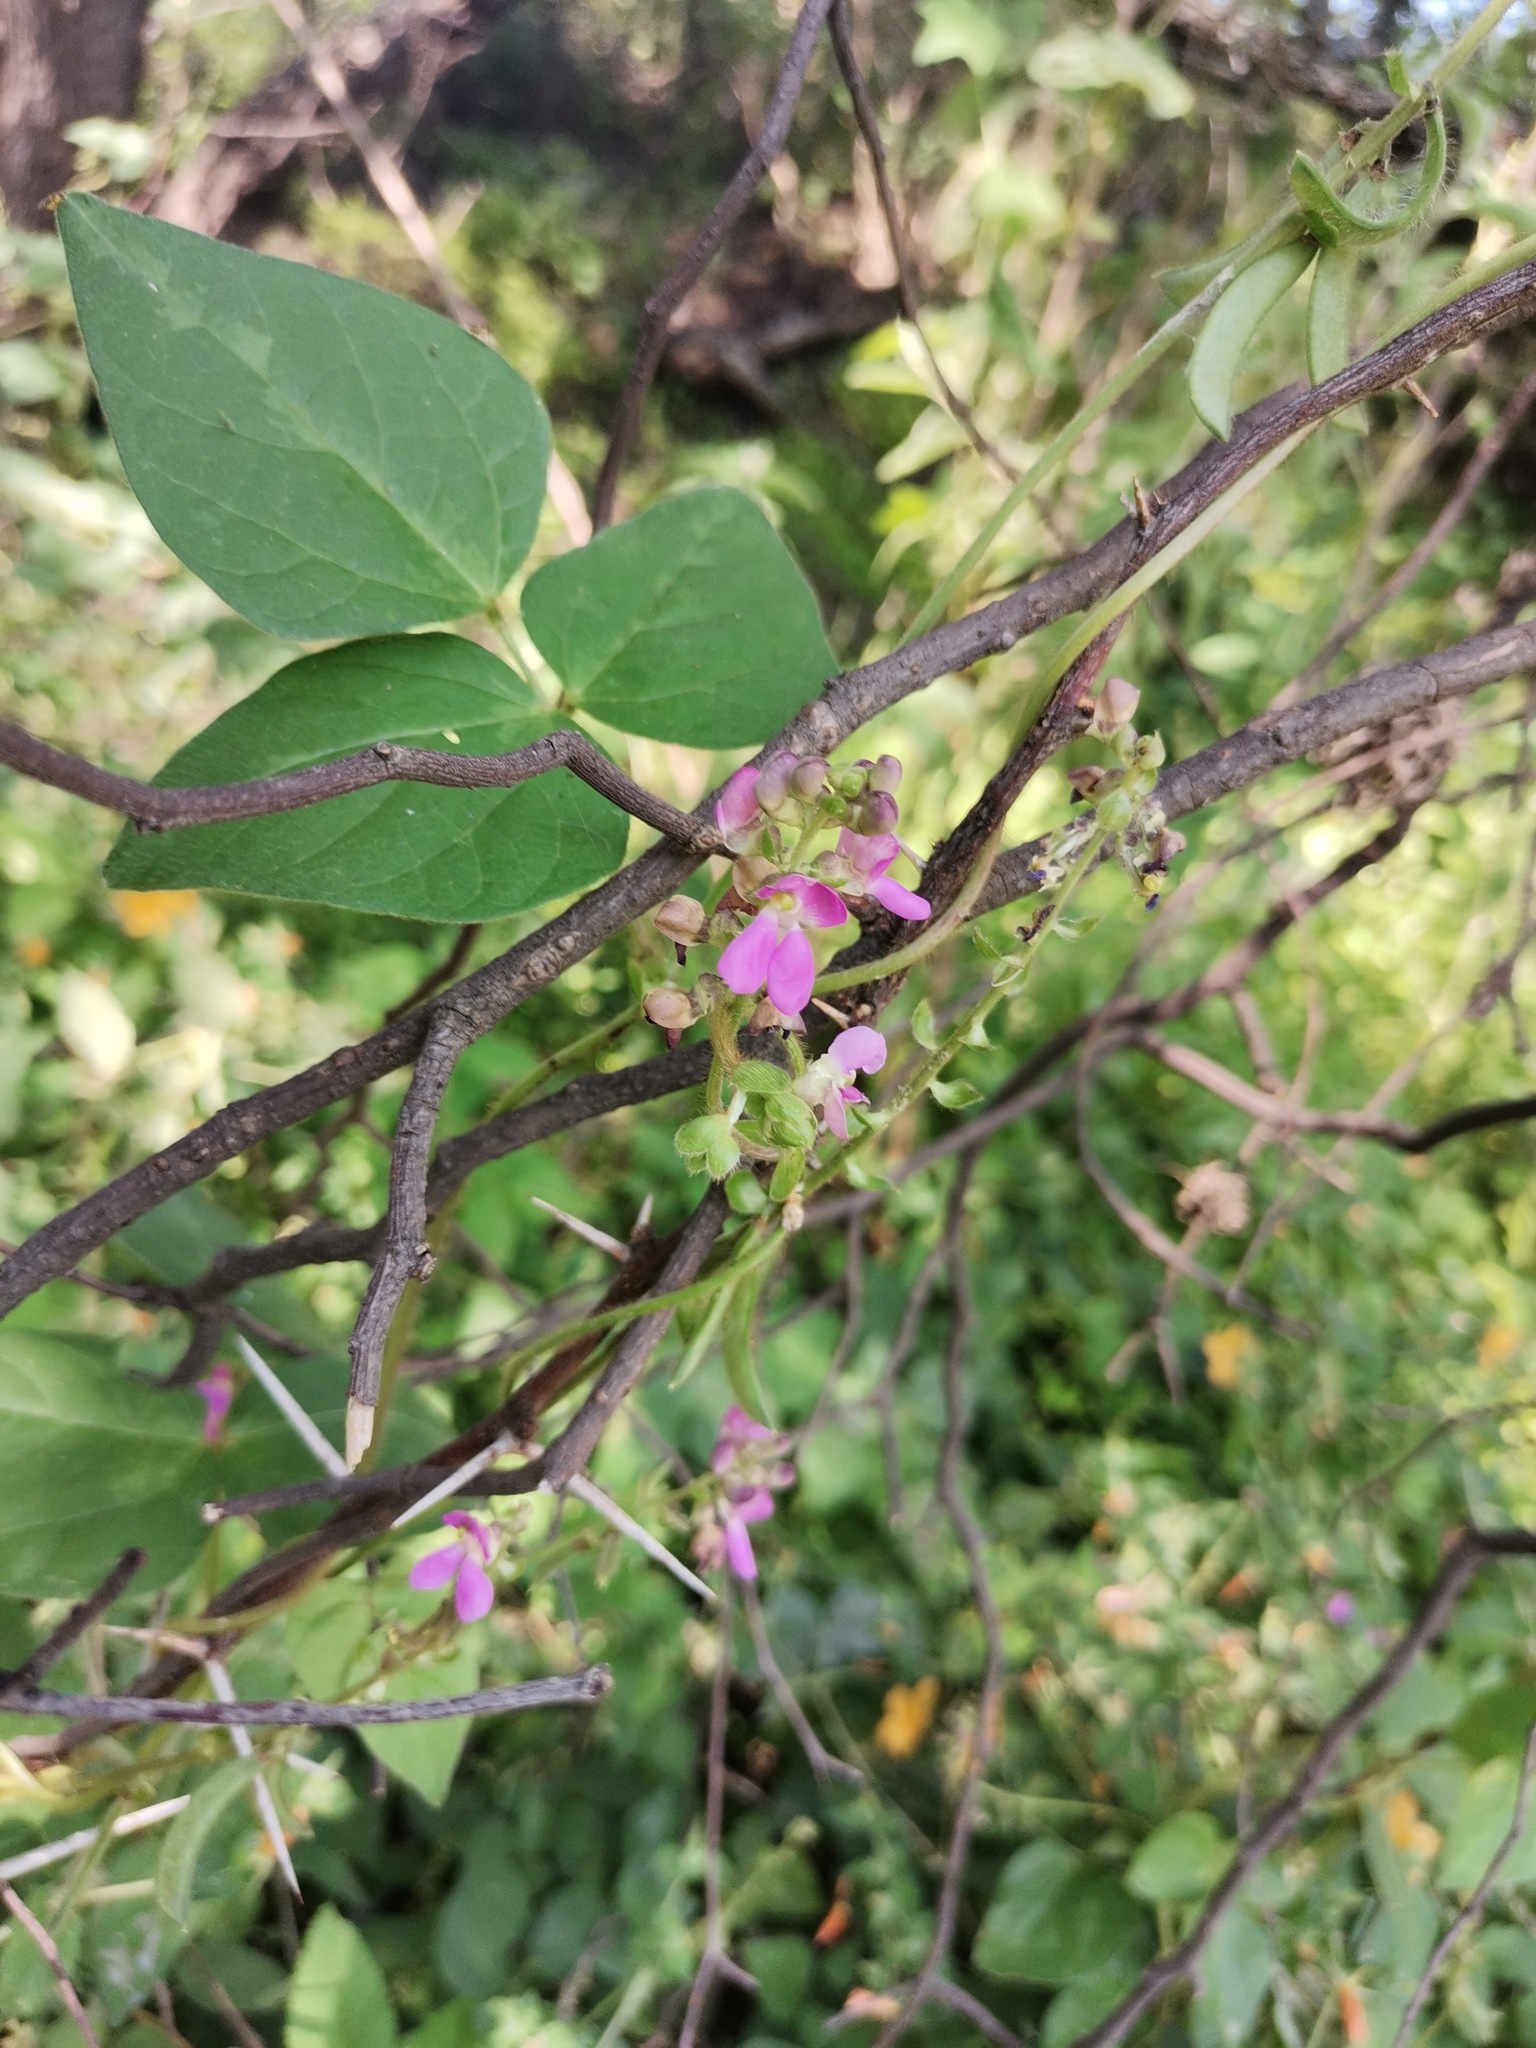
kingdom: Plantae
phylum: Tracheophyta
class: Magnoliopsida
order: Fabales
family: Fabaceae
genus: Phaseolus
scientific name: Phaseolus vulgaris
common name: Bean
